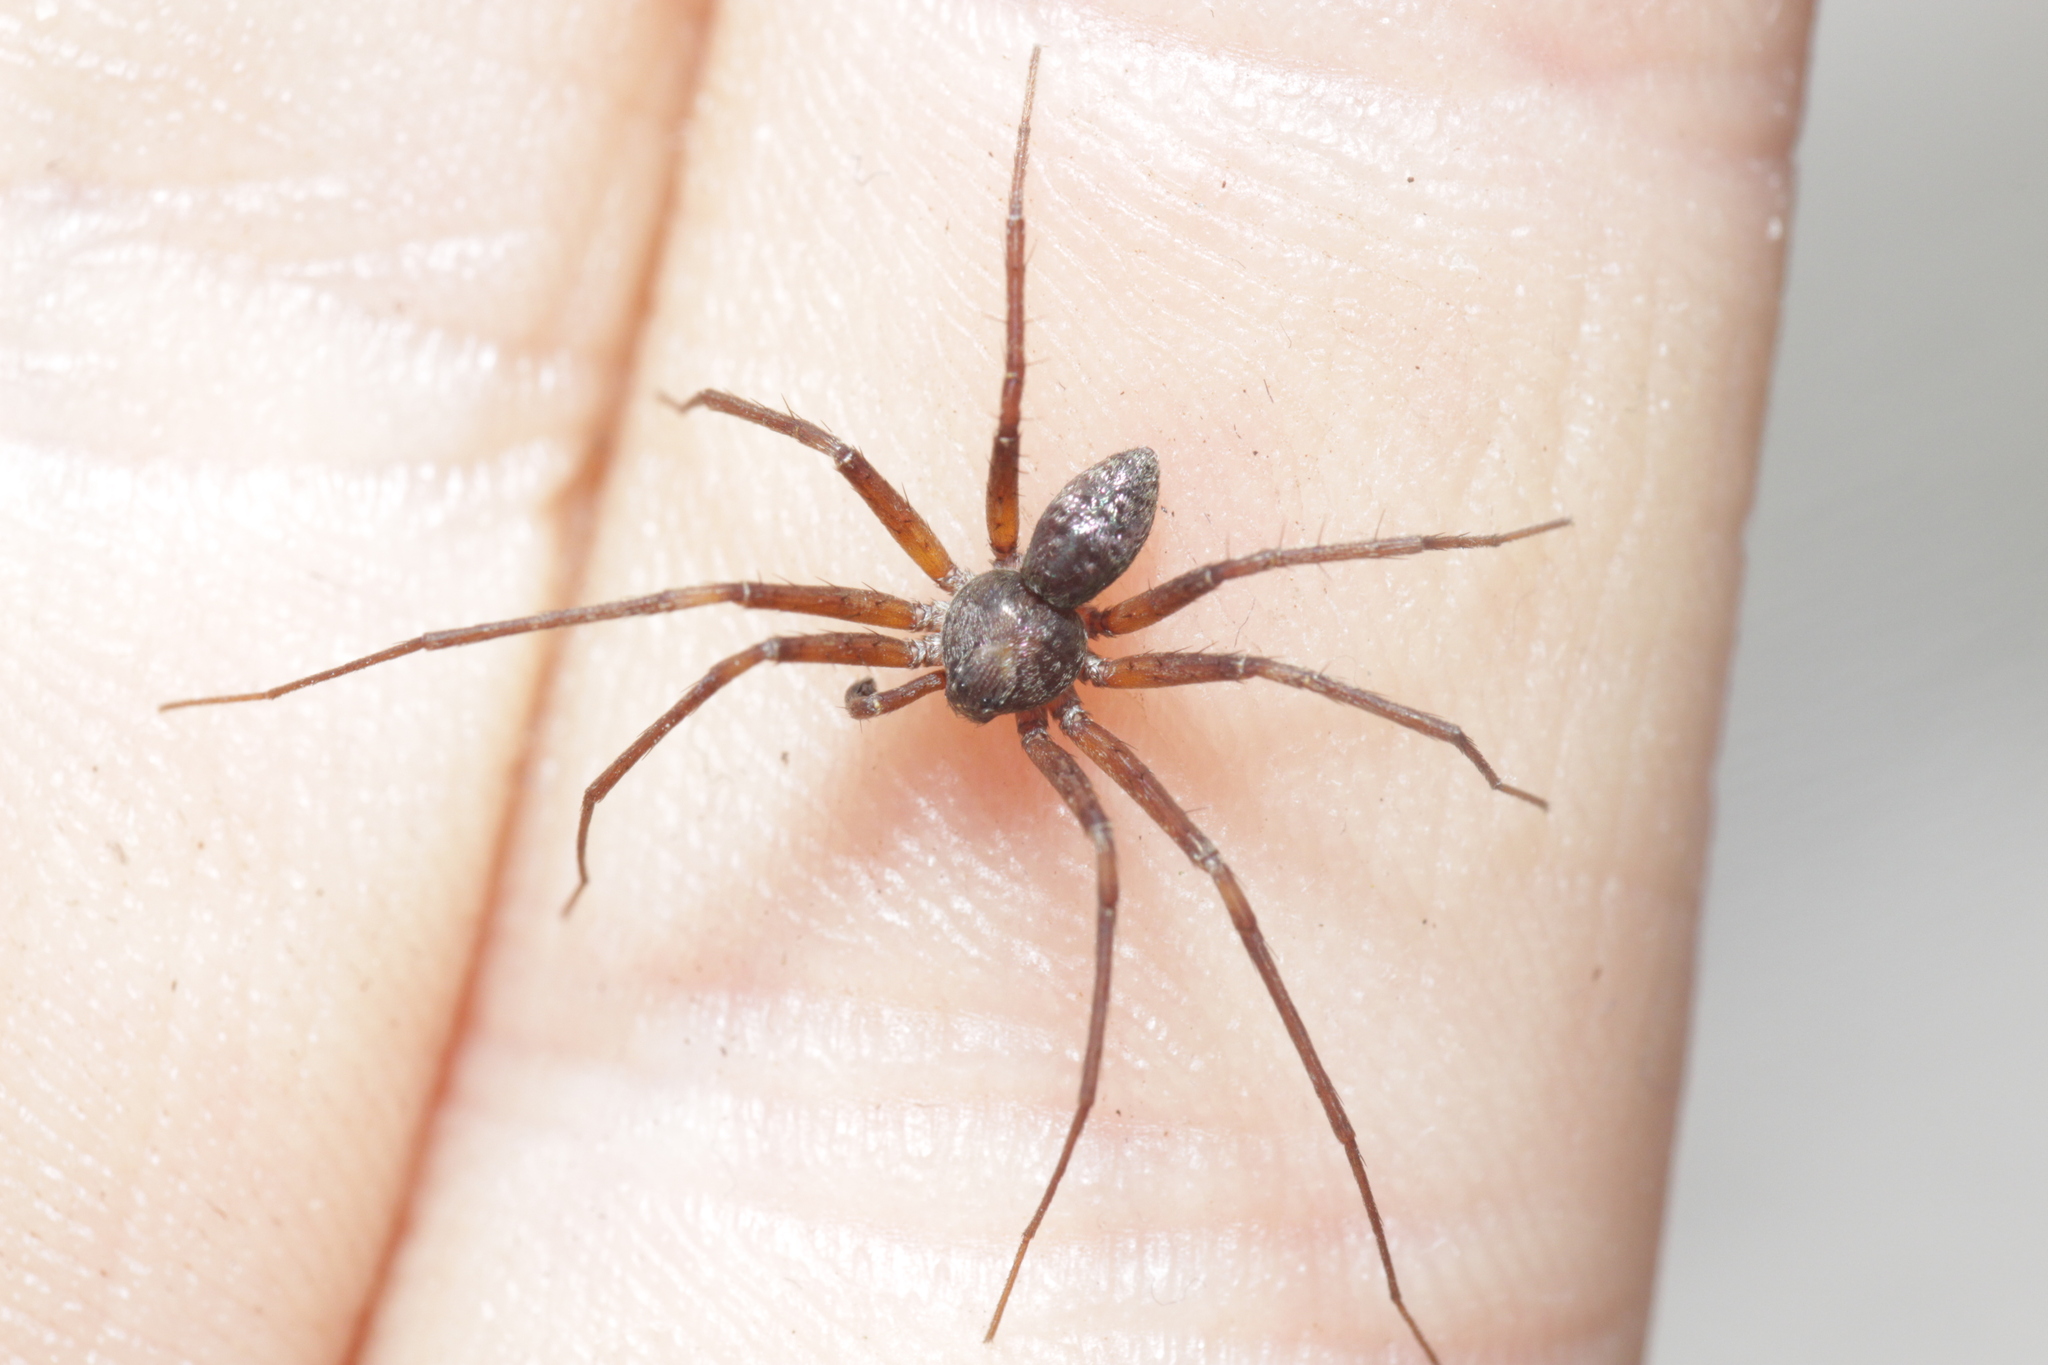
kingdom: Animalia
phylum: Arthropoda
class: Arachnida
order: Araneae
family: Philodromidae
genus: Philodromus
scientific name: Philodromus
